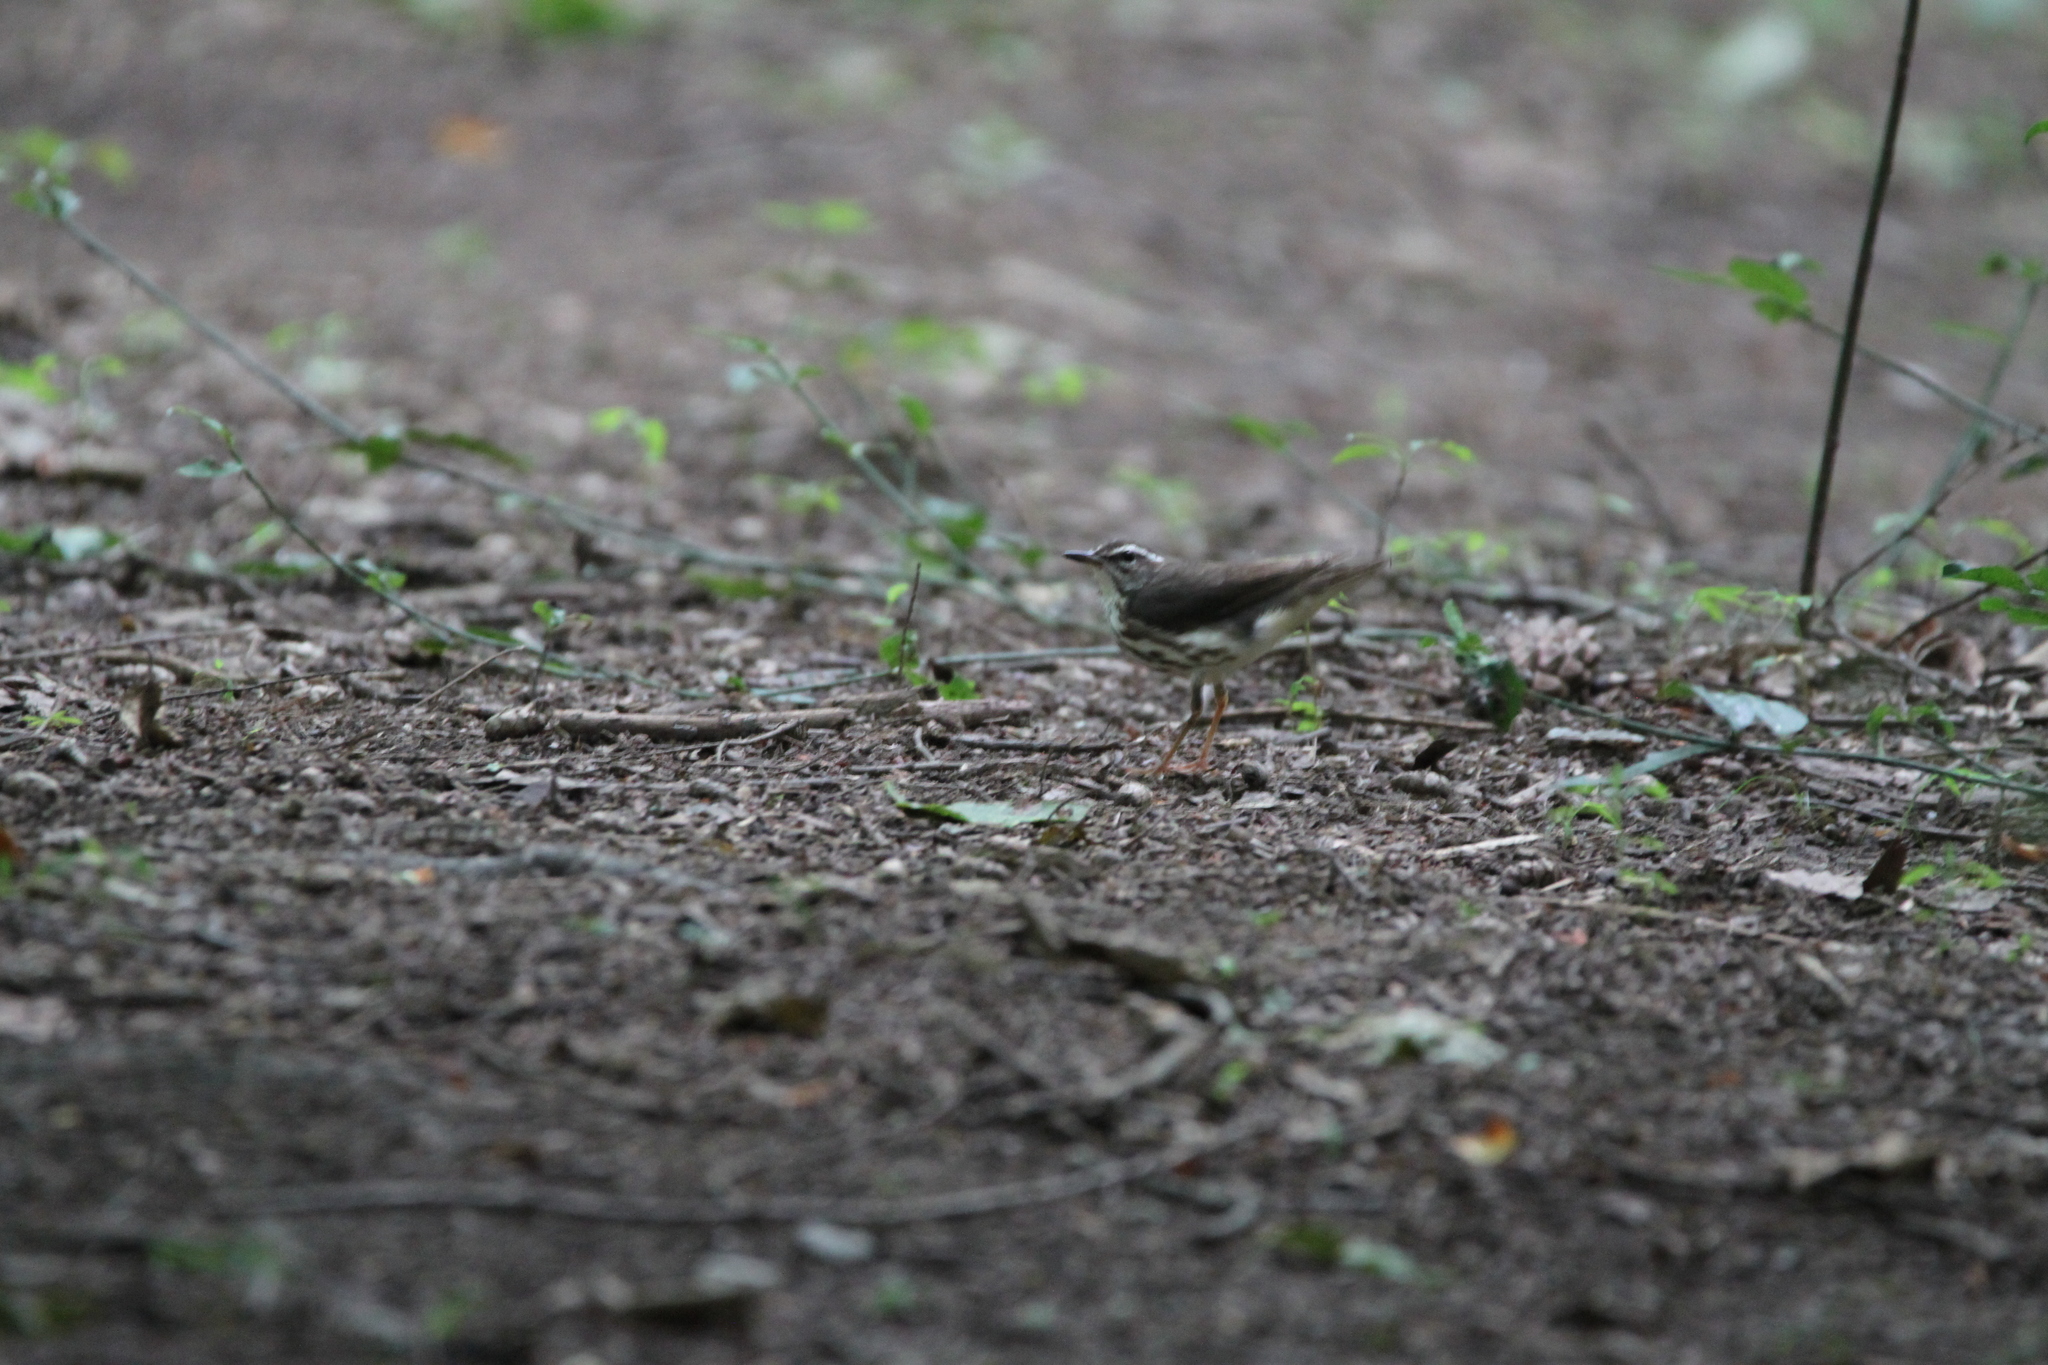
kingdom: Animalia
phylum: Chordata
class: Aves
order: Passeriformes
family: Parulidae
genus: Parkesia
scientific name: Parkesia motacilla
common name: Louisiana waterthrush
